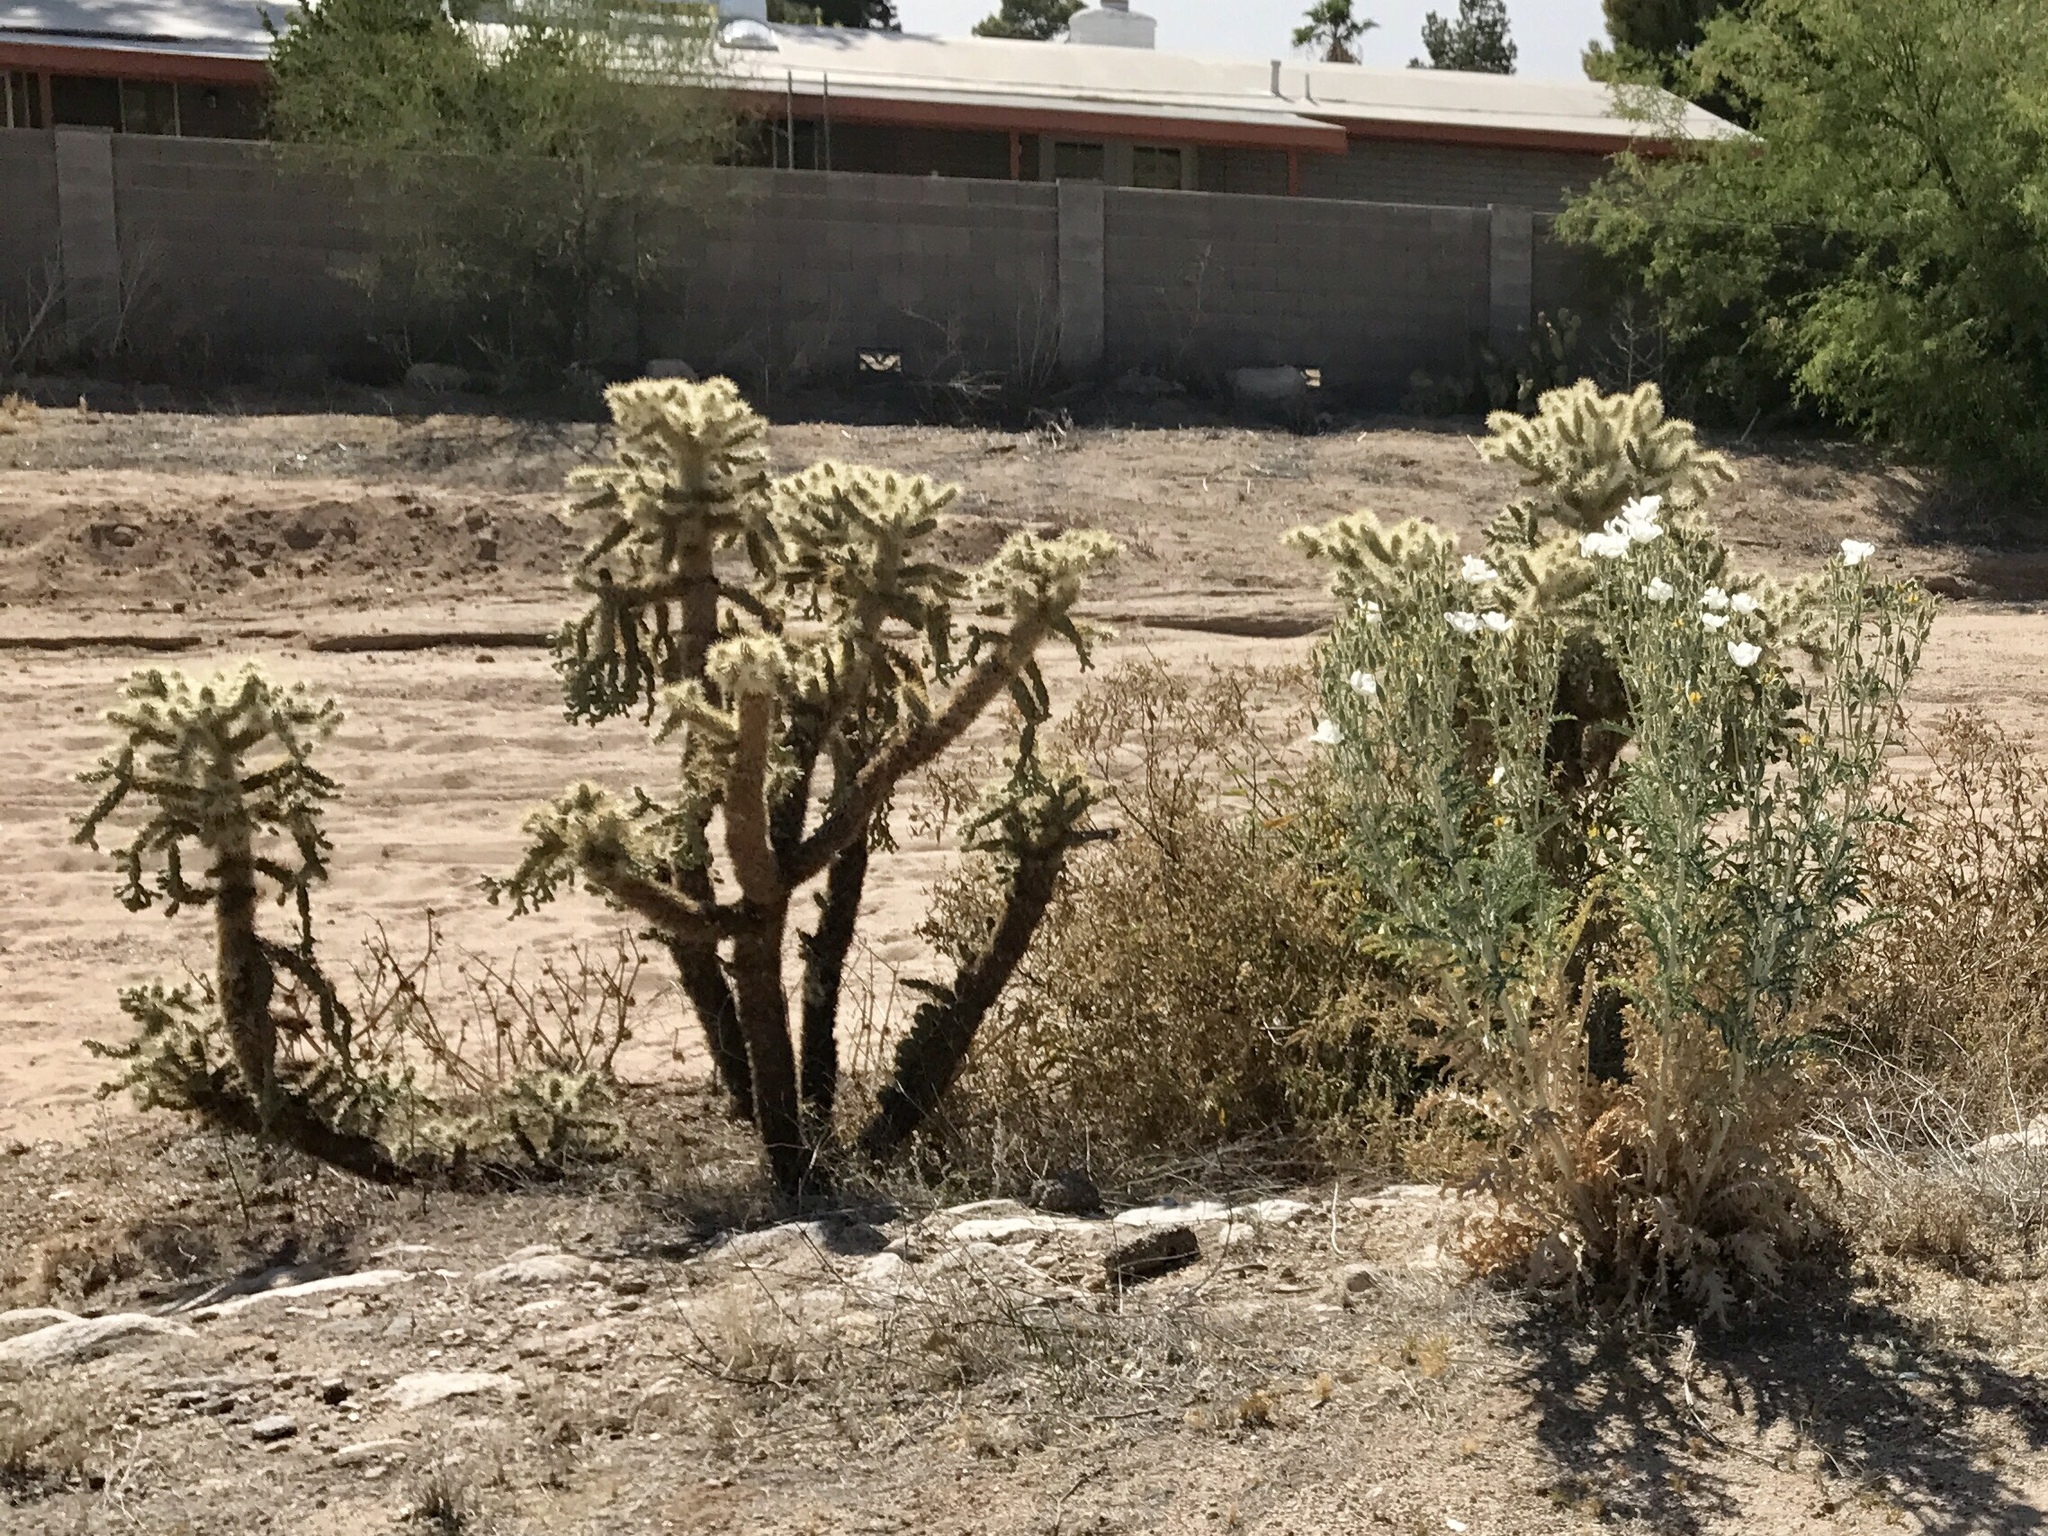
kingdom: Plantae
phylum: Tracheophyta
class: Magnoliopsida
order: Caryophyllales
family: Cactaceae
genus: Cylindropuntia
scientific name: Cylindropuntia fulgida
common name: Jumping cholla
